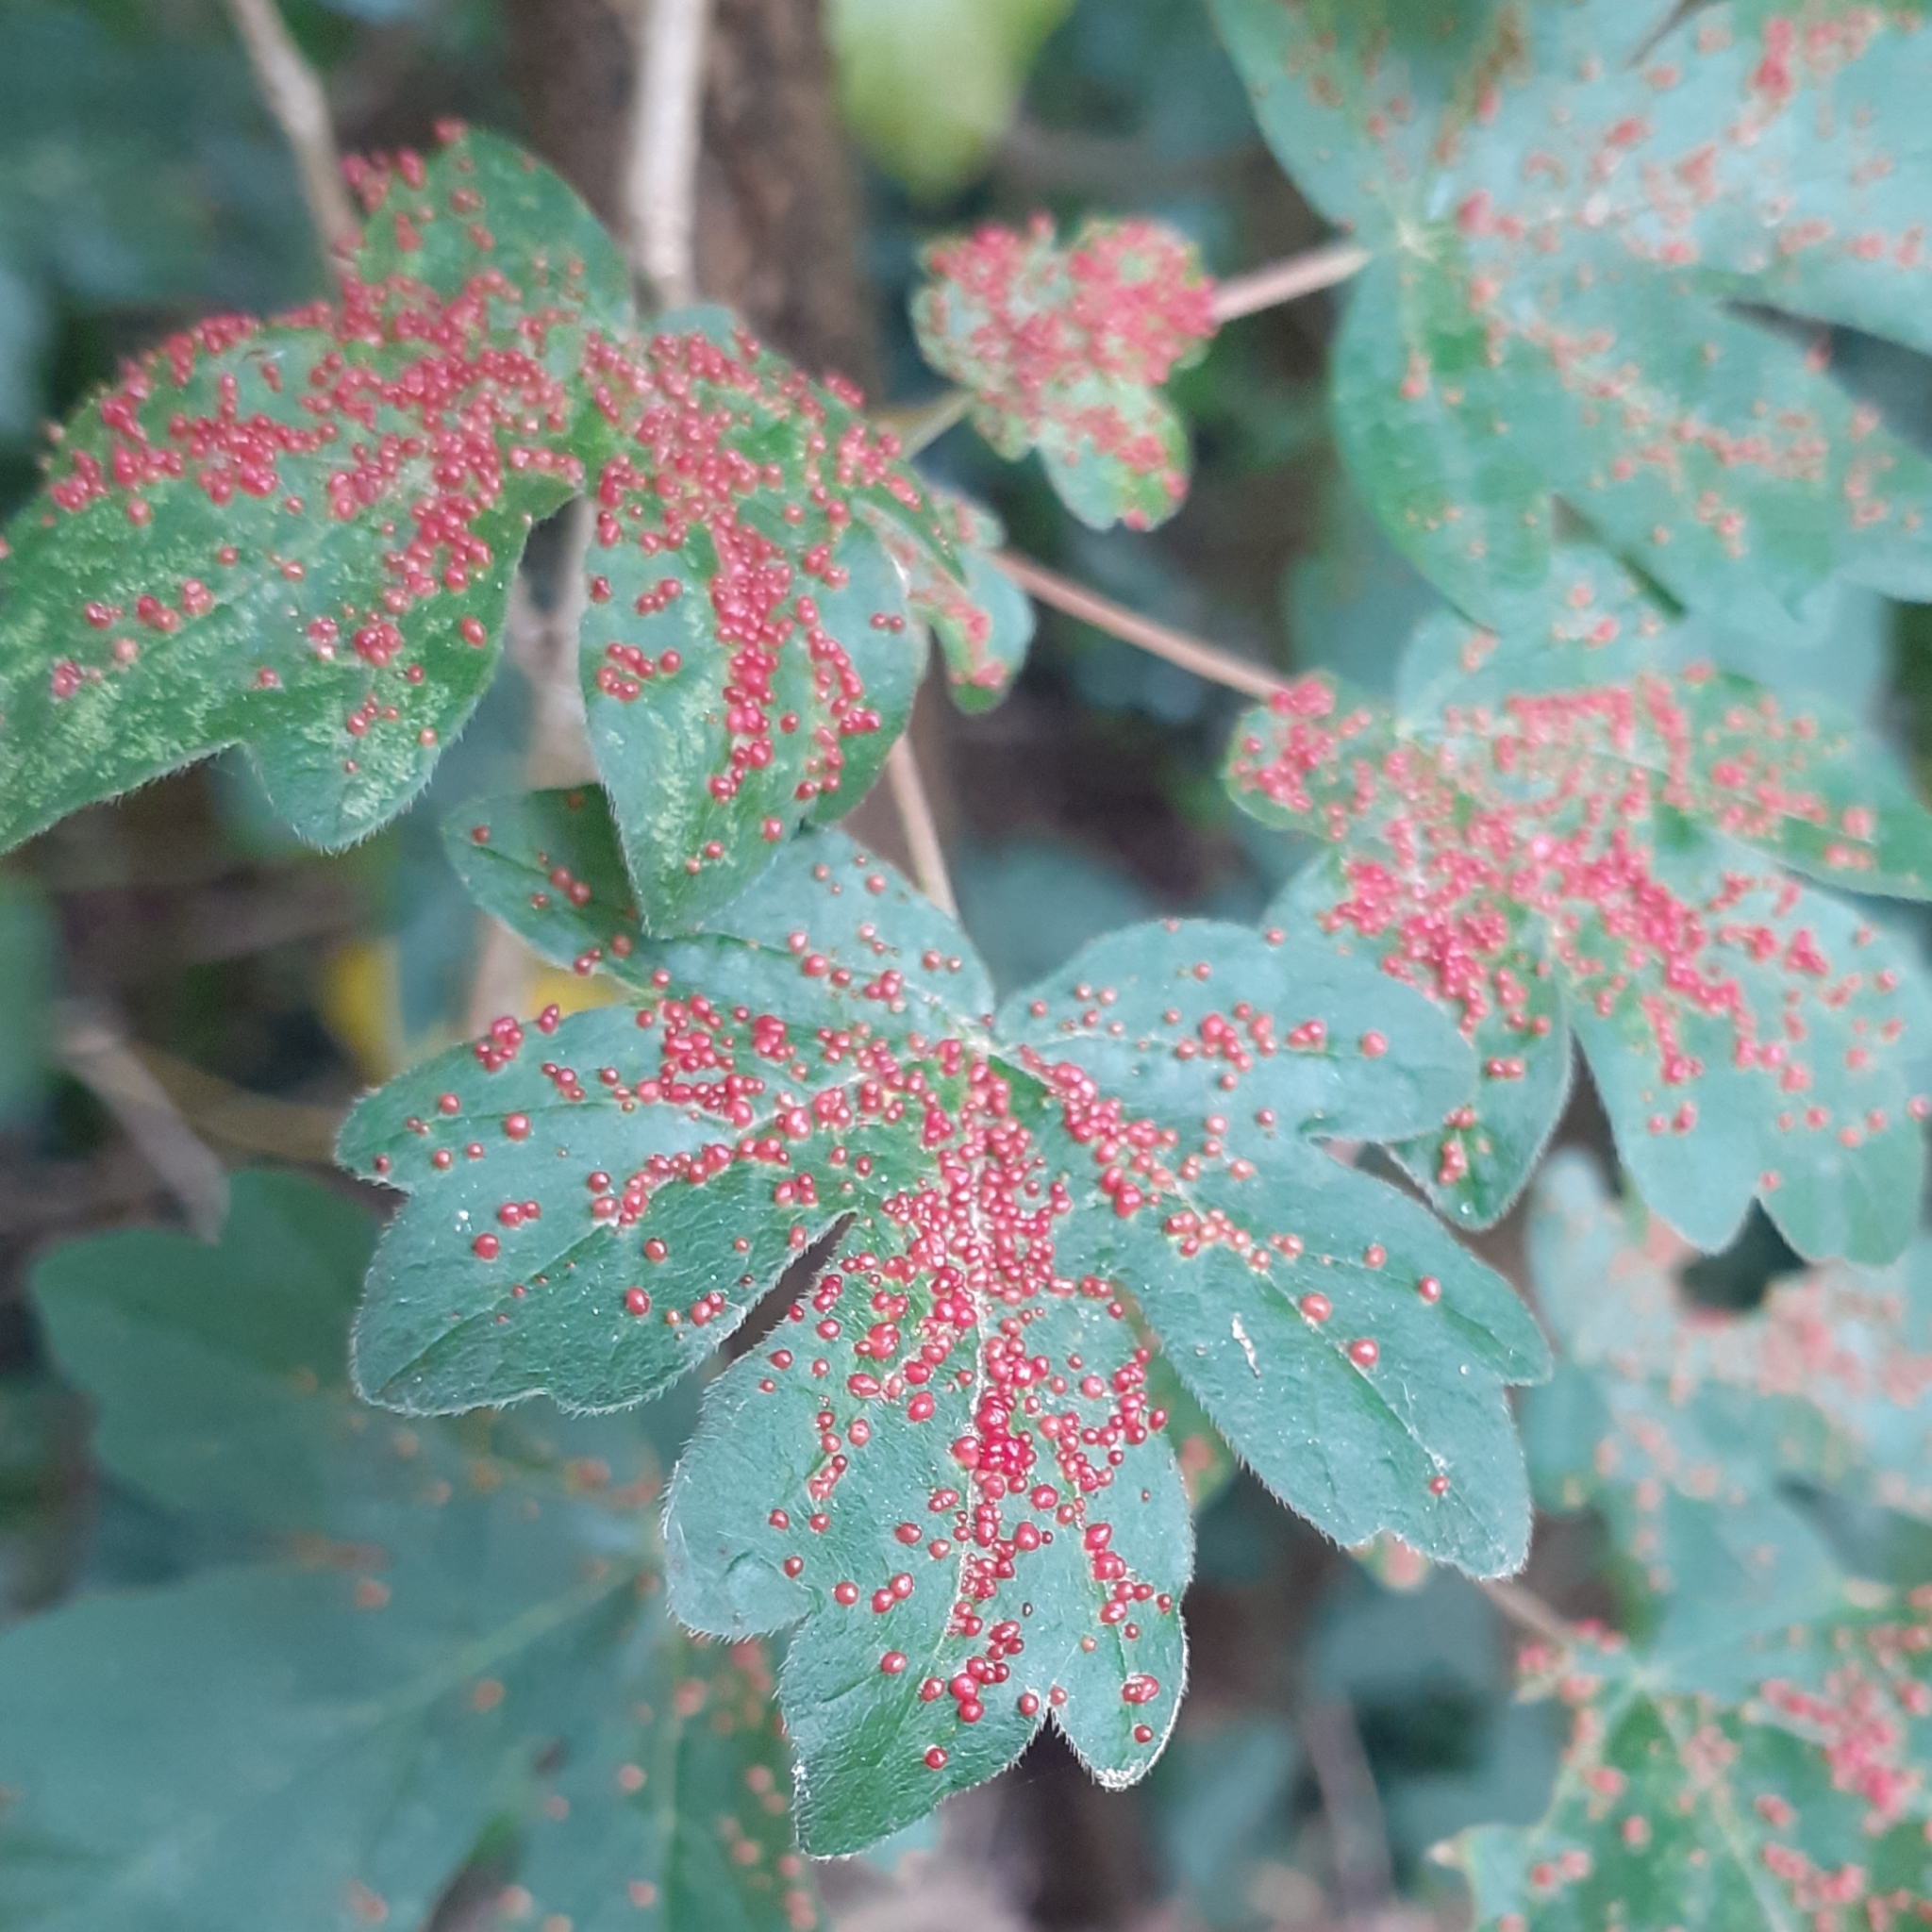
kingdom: Animalia
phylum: Arthropoda
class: Arachnida
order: Trombidiformes
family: Eriophyidae
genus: Aceria
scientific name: Aceria myriadeum
